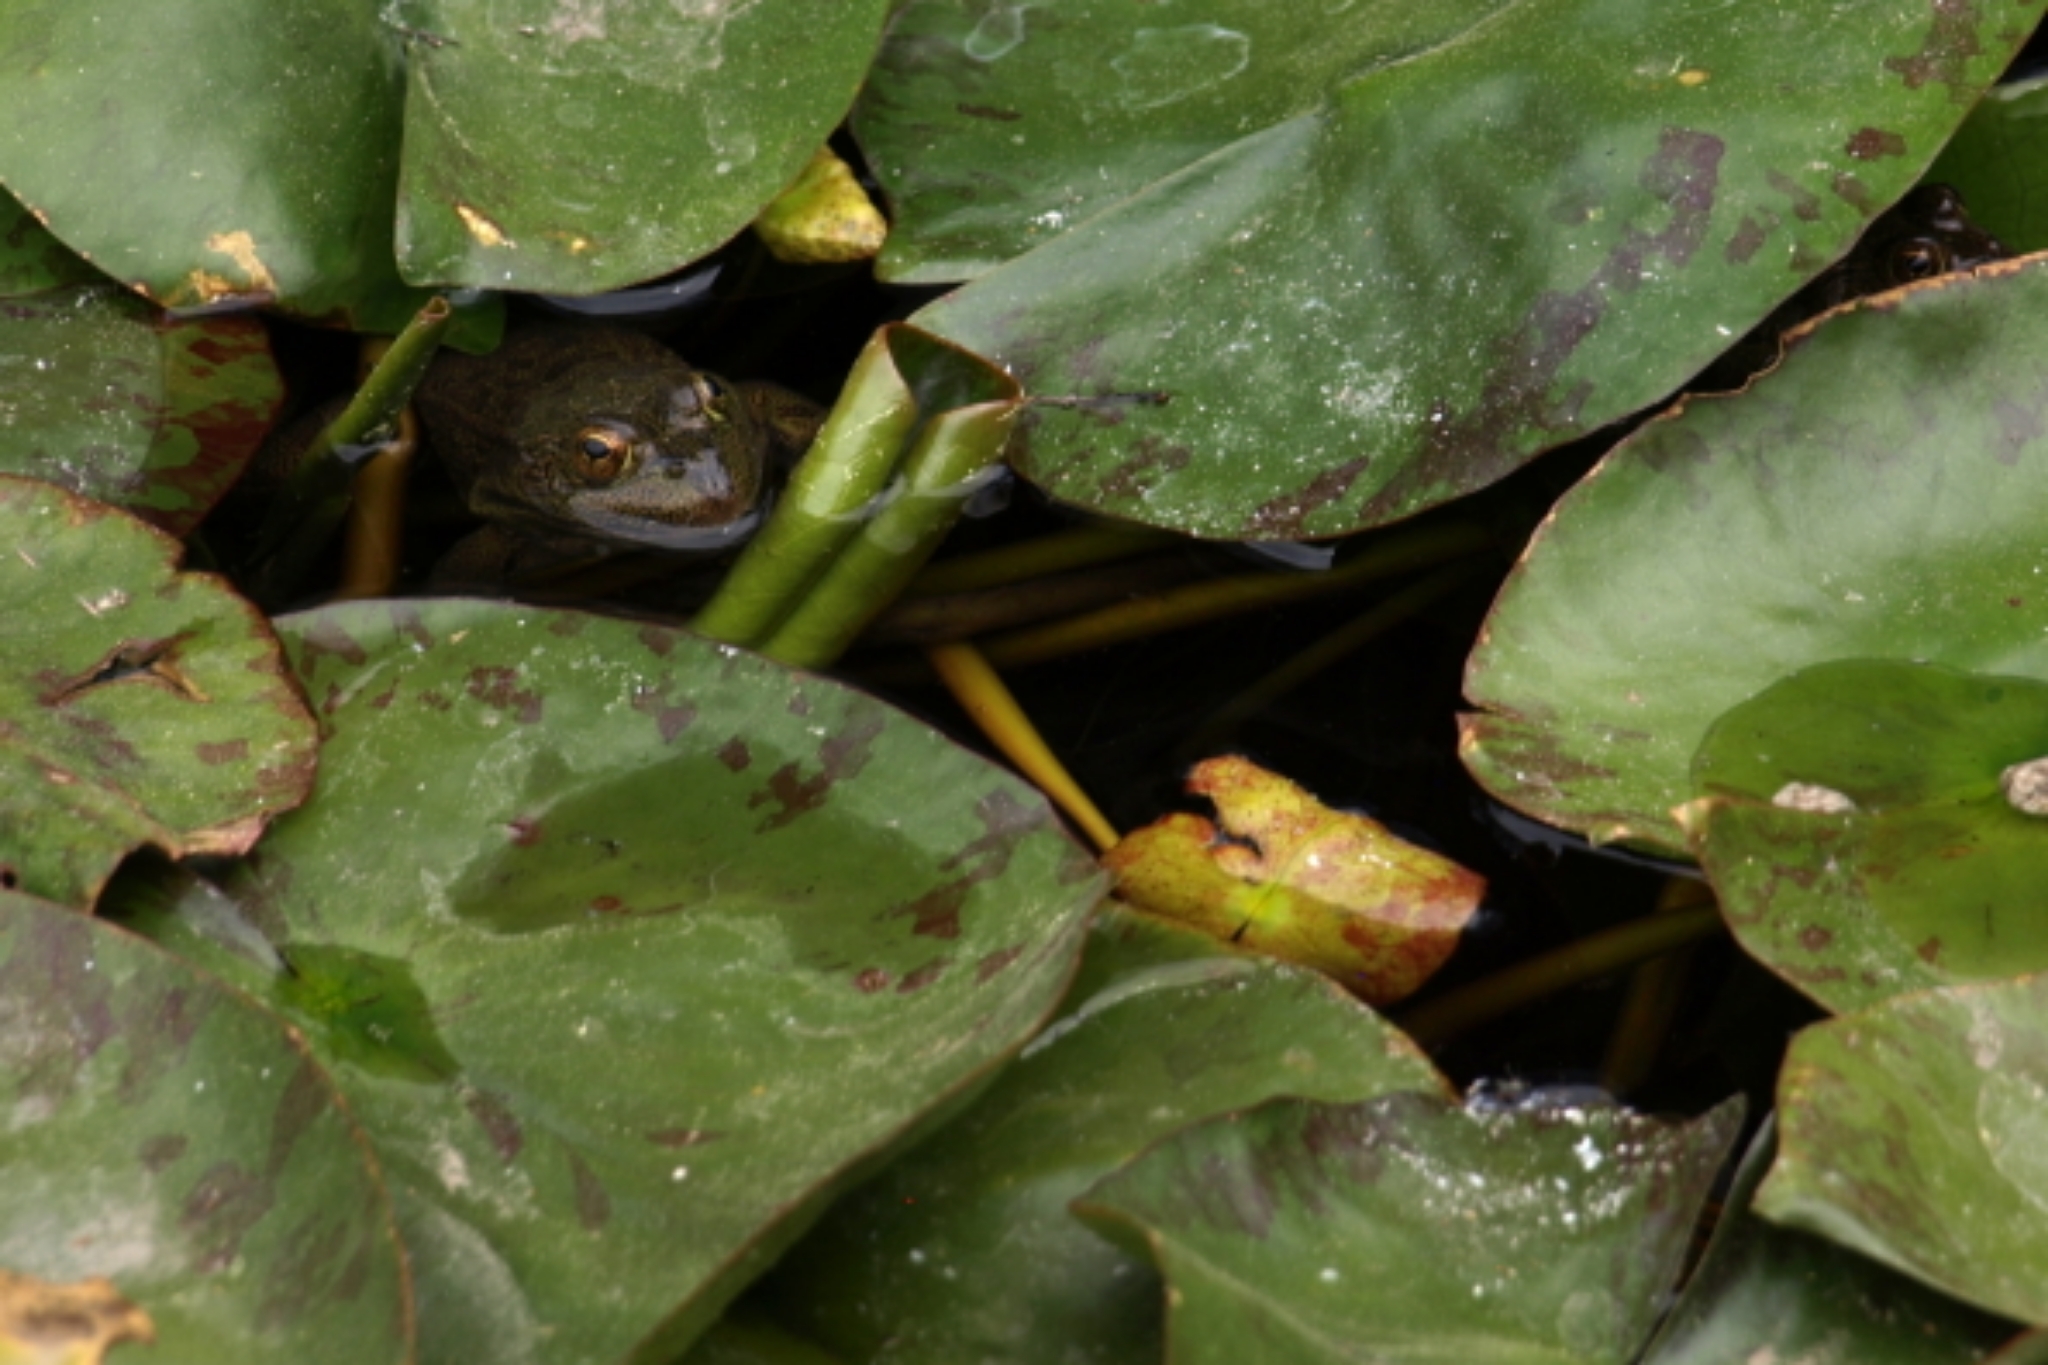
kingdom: Animalia
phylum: Chordata
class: Amphibia
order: Anura
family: Ranidae
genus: Lithobates
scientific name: Lithobates montezumae
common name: Montezuma leopard frog
